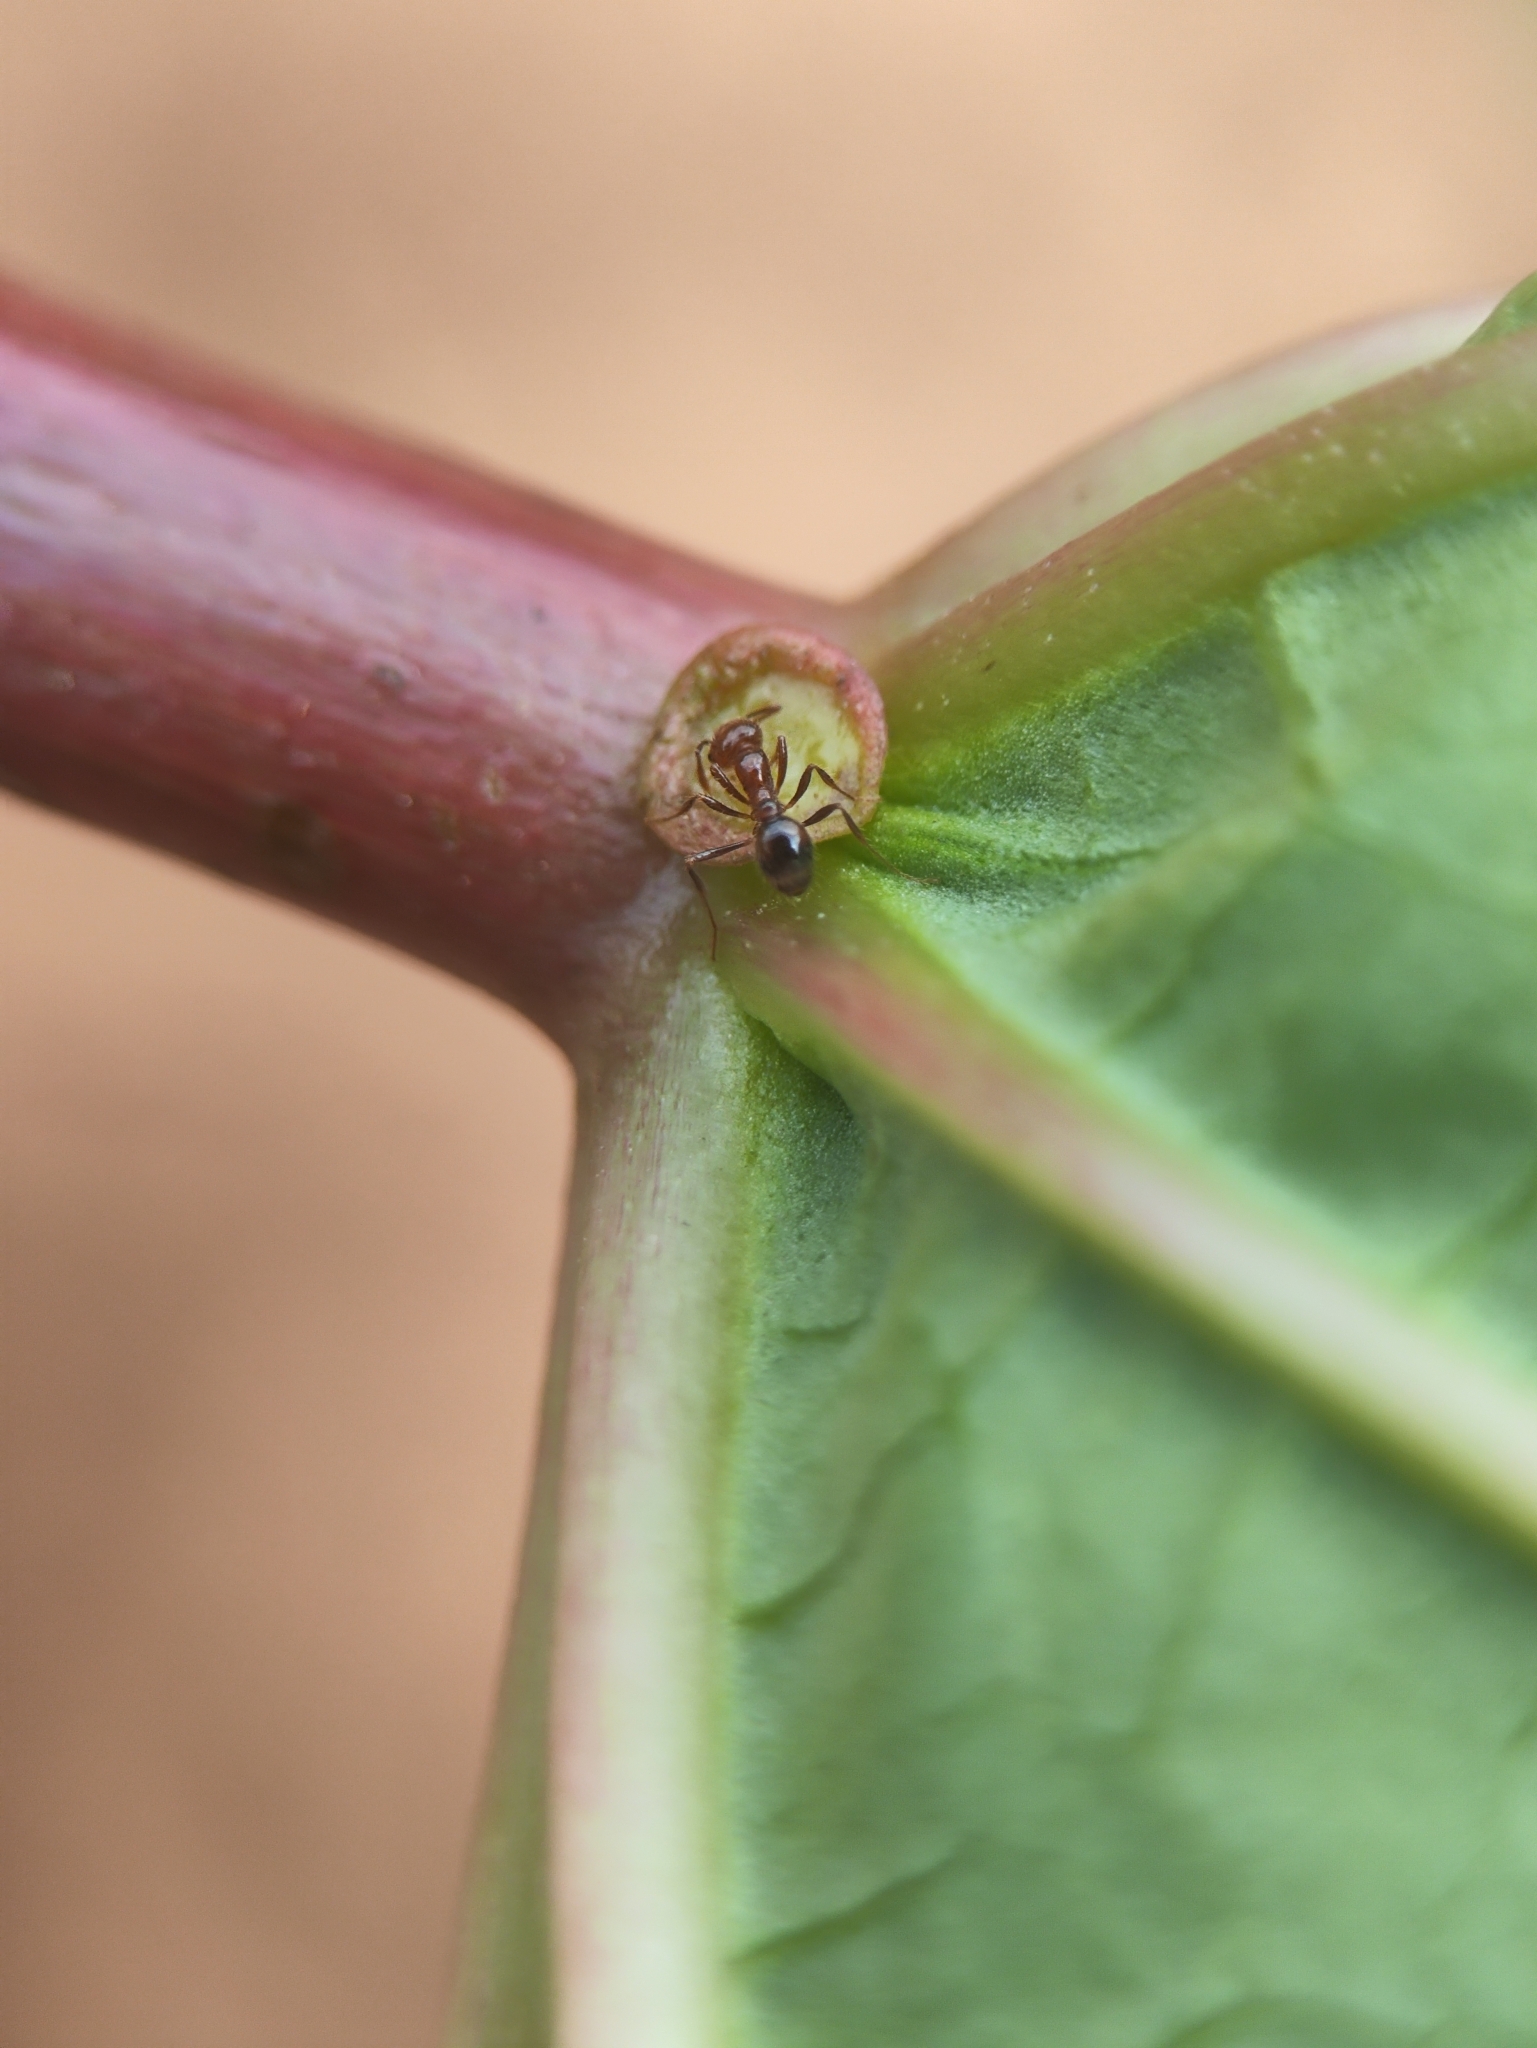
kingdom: Animalia
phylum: Arthropoda
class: Insecta
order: Hymenoptera
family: Formicidae
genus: Solenopsis
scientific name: Solenopsis geminata
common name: Tropical fire ant
